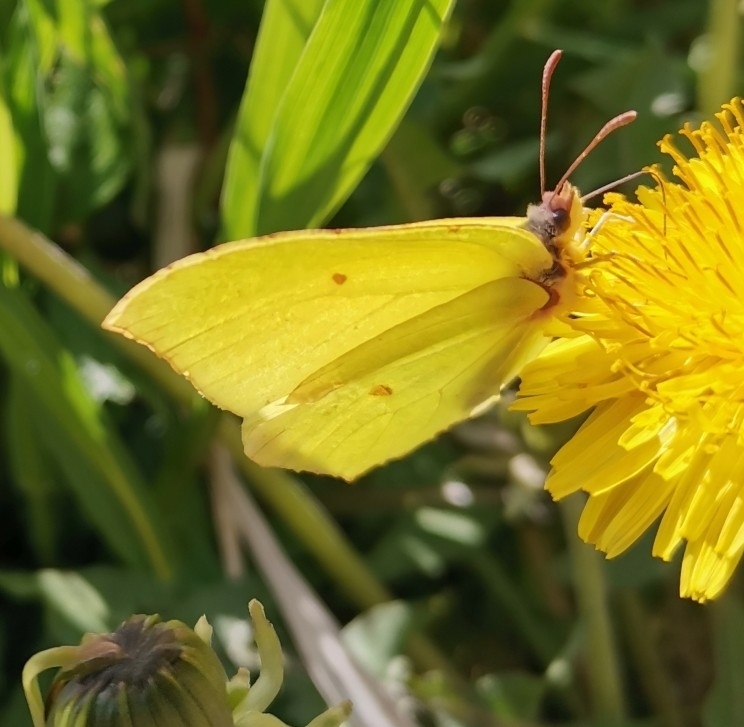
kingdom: Animalia
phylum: Arthropoda
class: Insecta
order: Lepidoptera
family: Pieridae
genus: Gonepteryx
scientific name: Gonepteryx rhamni
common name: Brimstone
